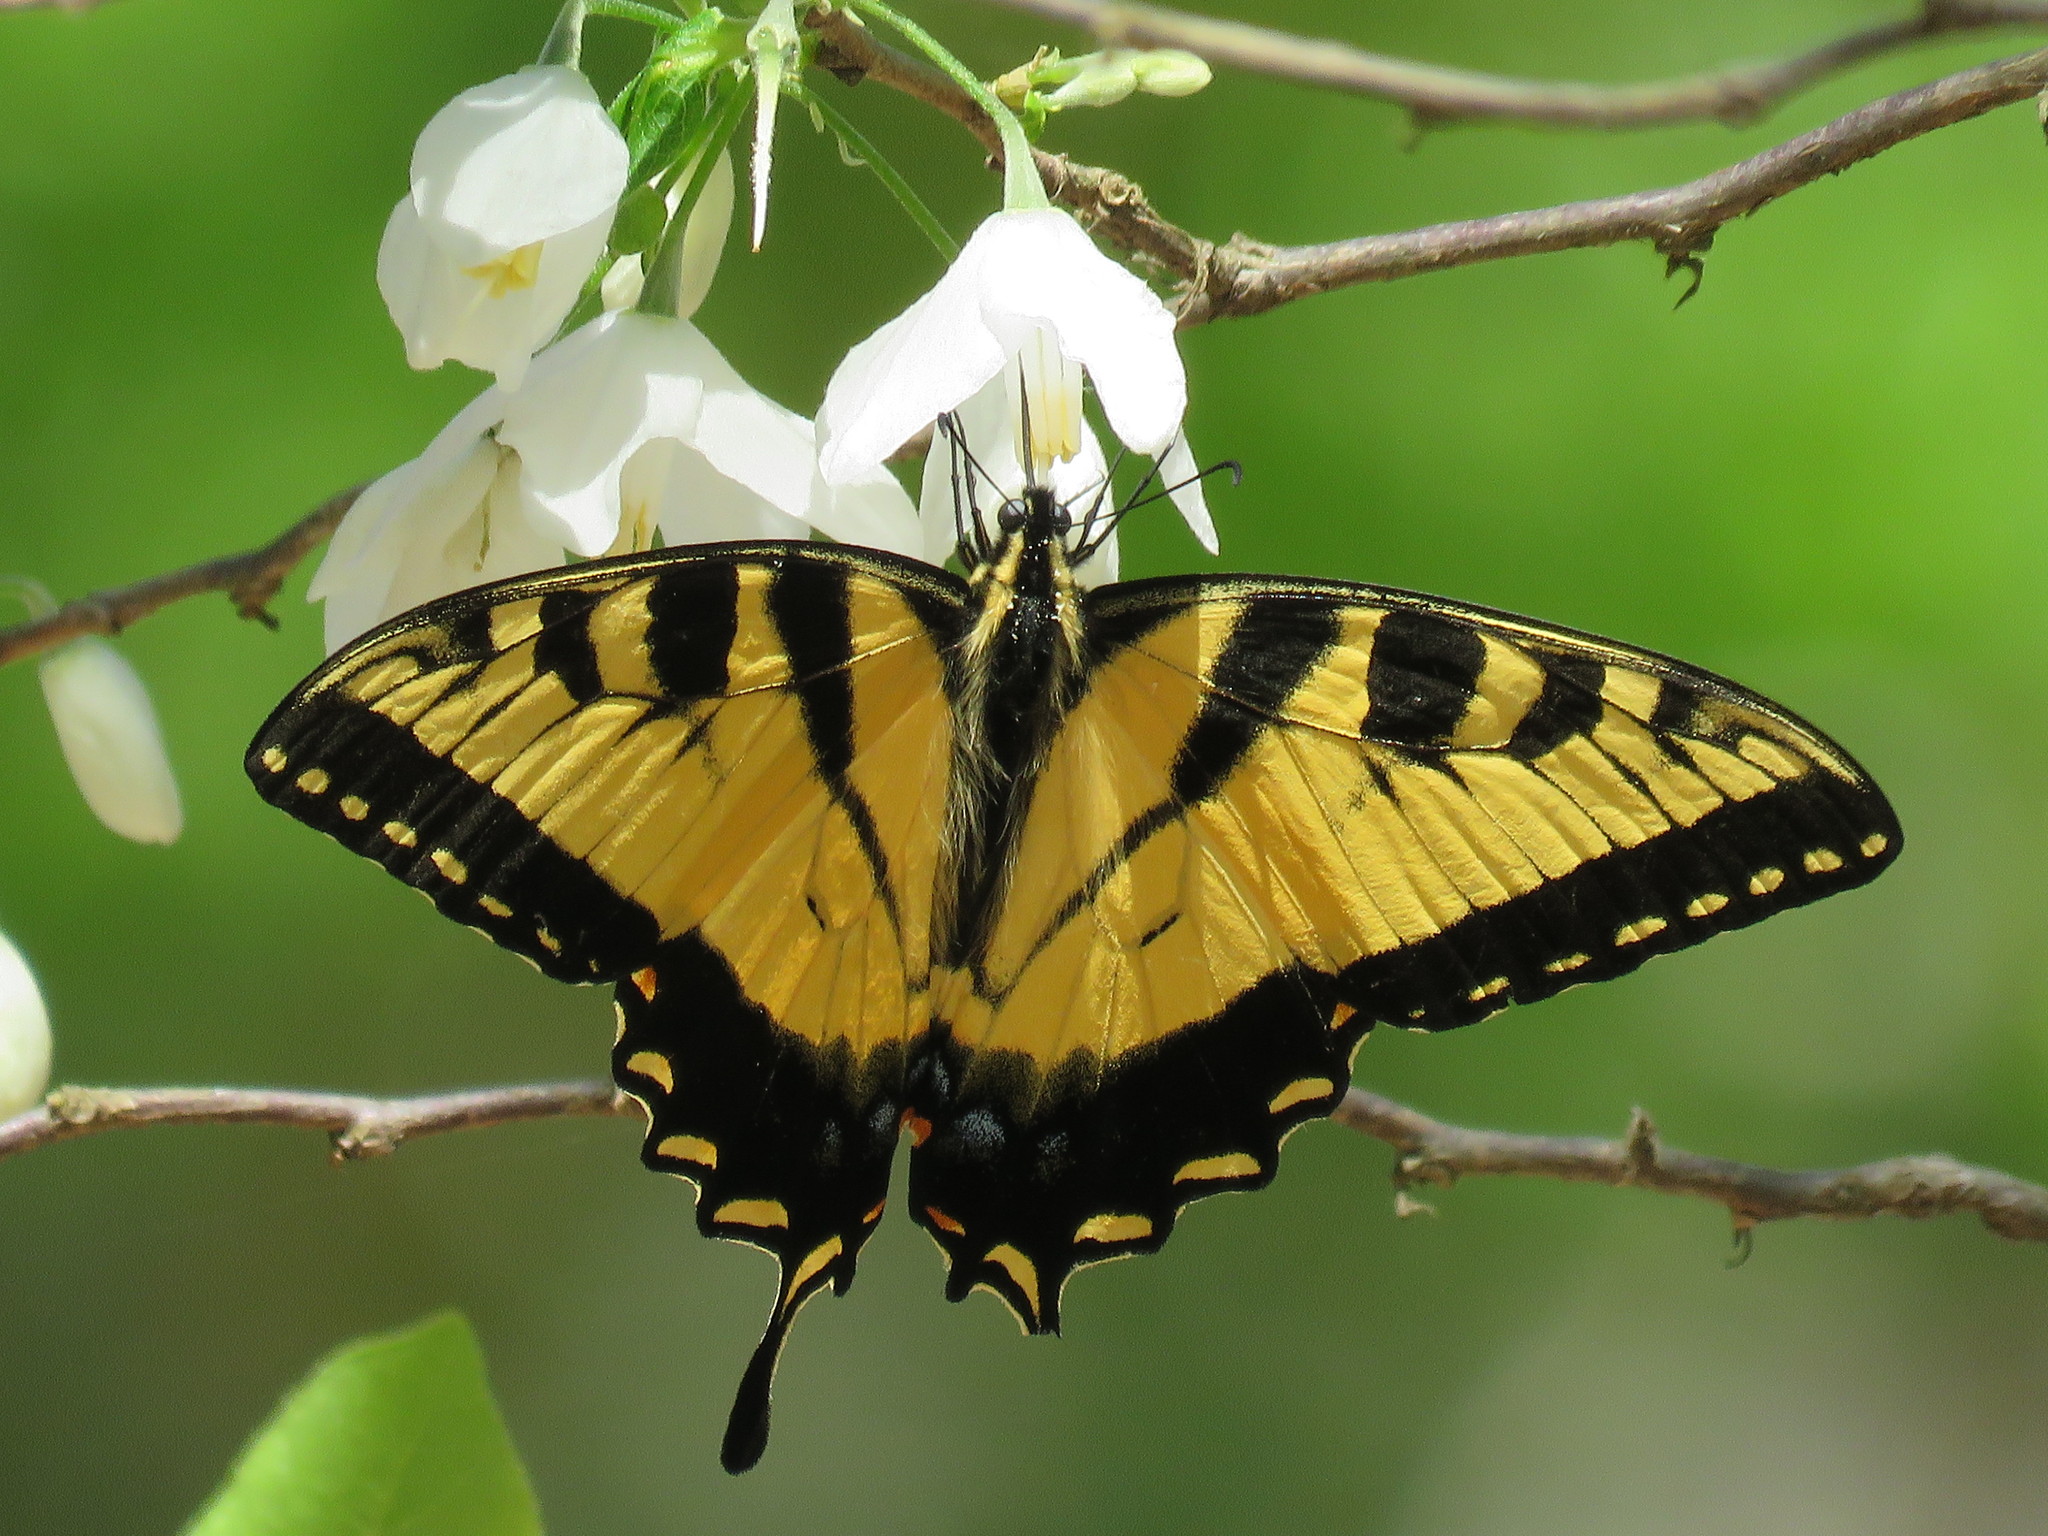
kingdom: Animalia
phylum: Arthropoda
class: Insecta
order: Lepidoptera
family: Papilionidae
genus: Papilio
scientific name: Papilio glaucus
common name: Tiger swallowtail
